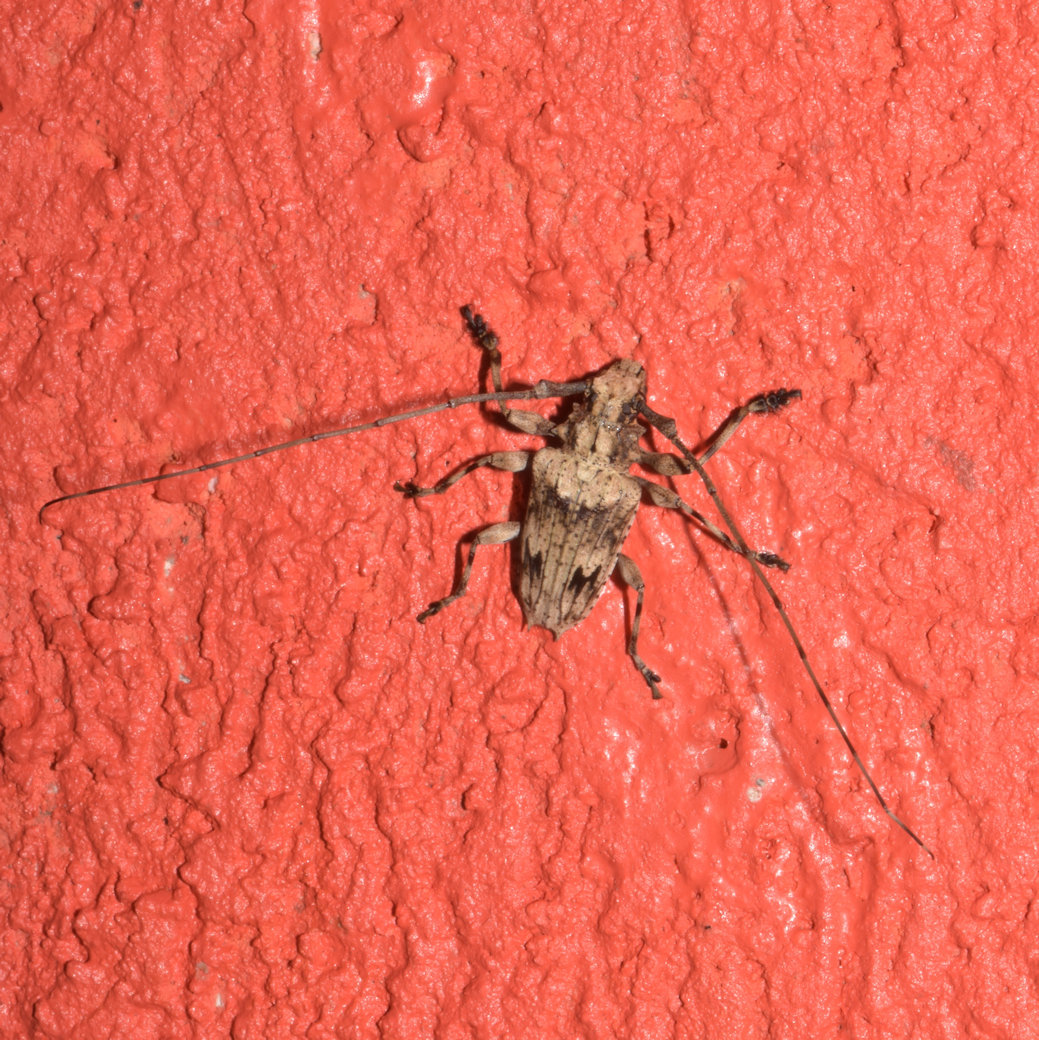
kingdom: Animalia
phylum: Arthropoda
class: Insecta
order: Coleoptera
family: Cerambycidae
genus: Steirastoma
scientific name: Steirastoma pustulatum
